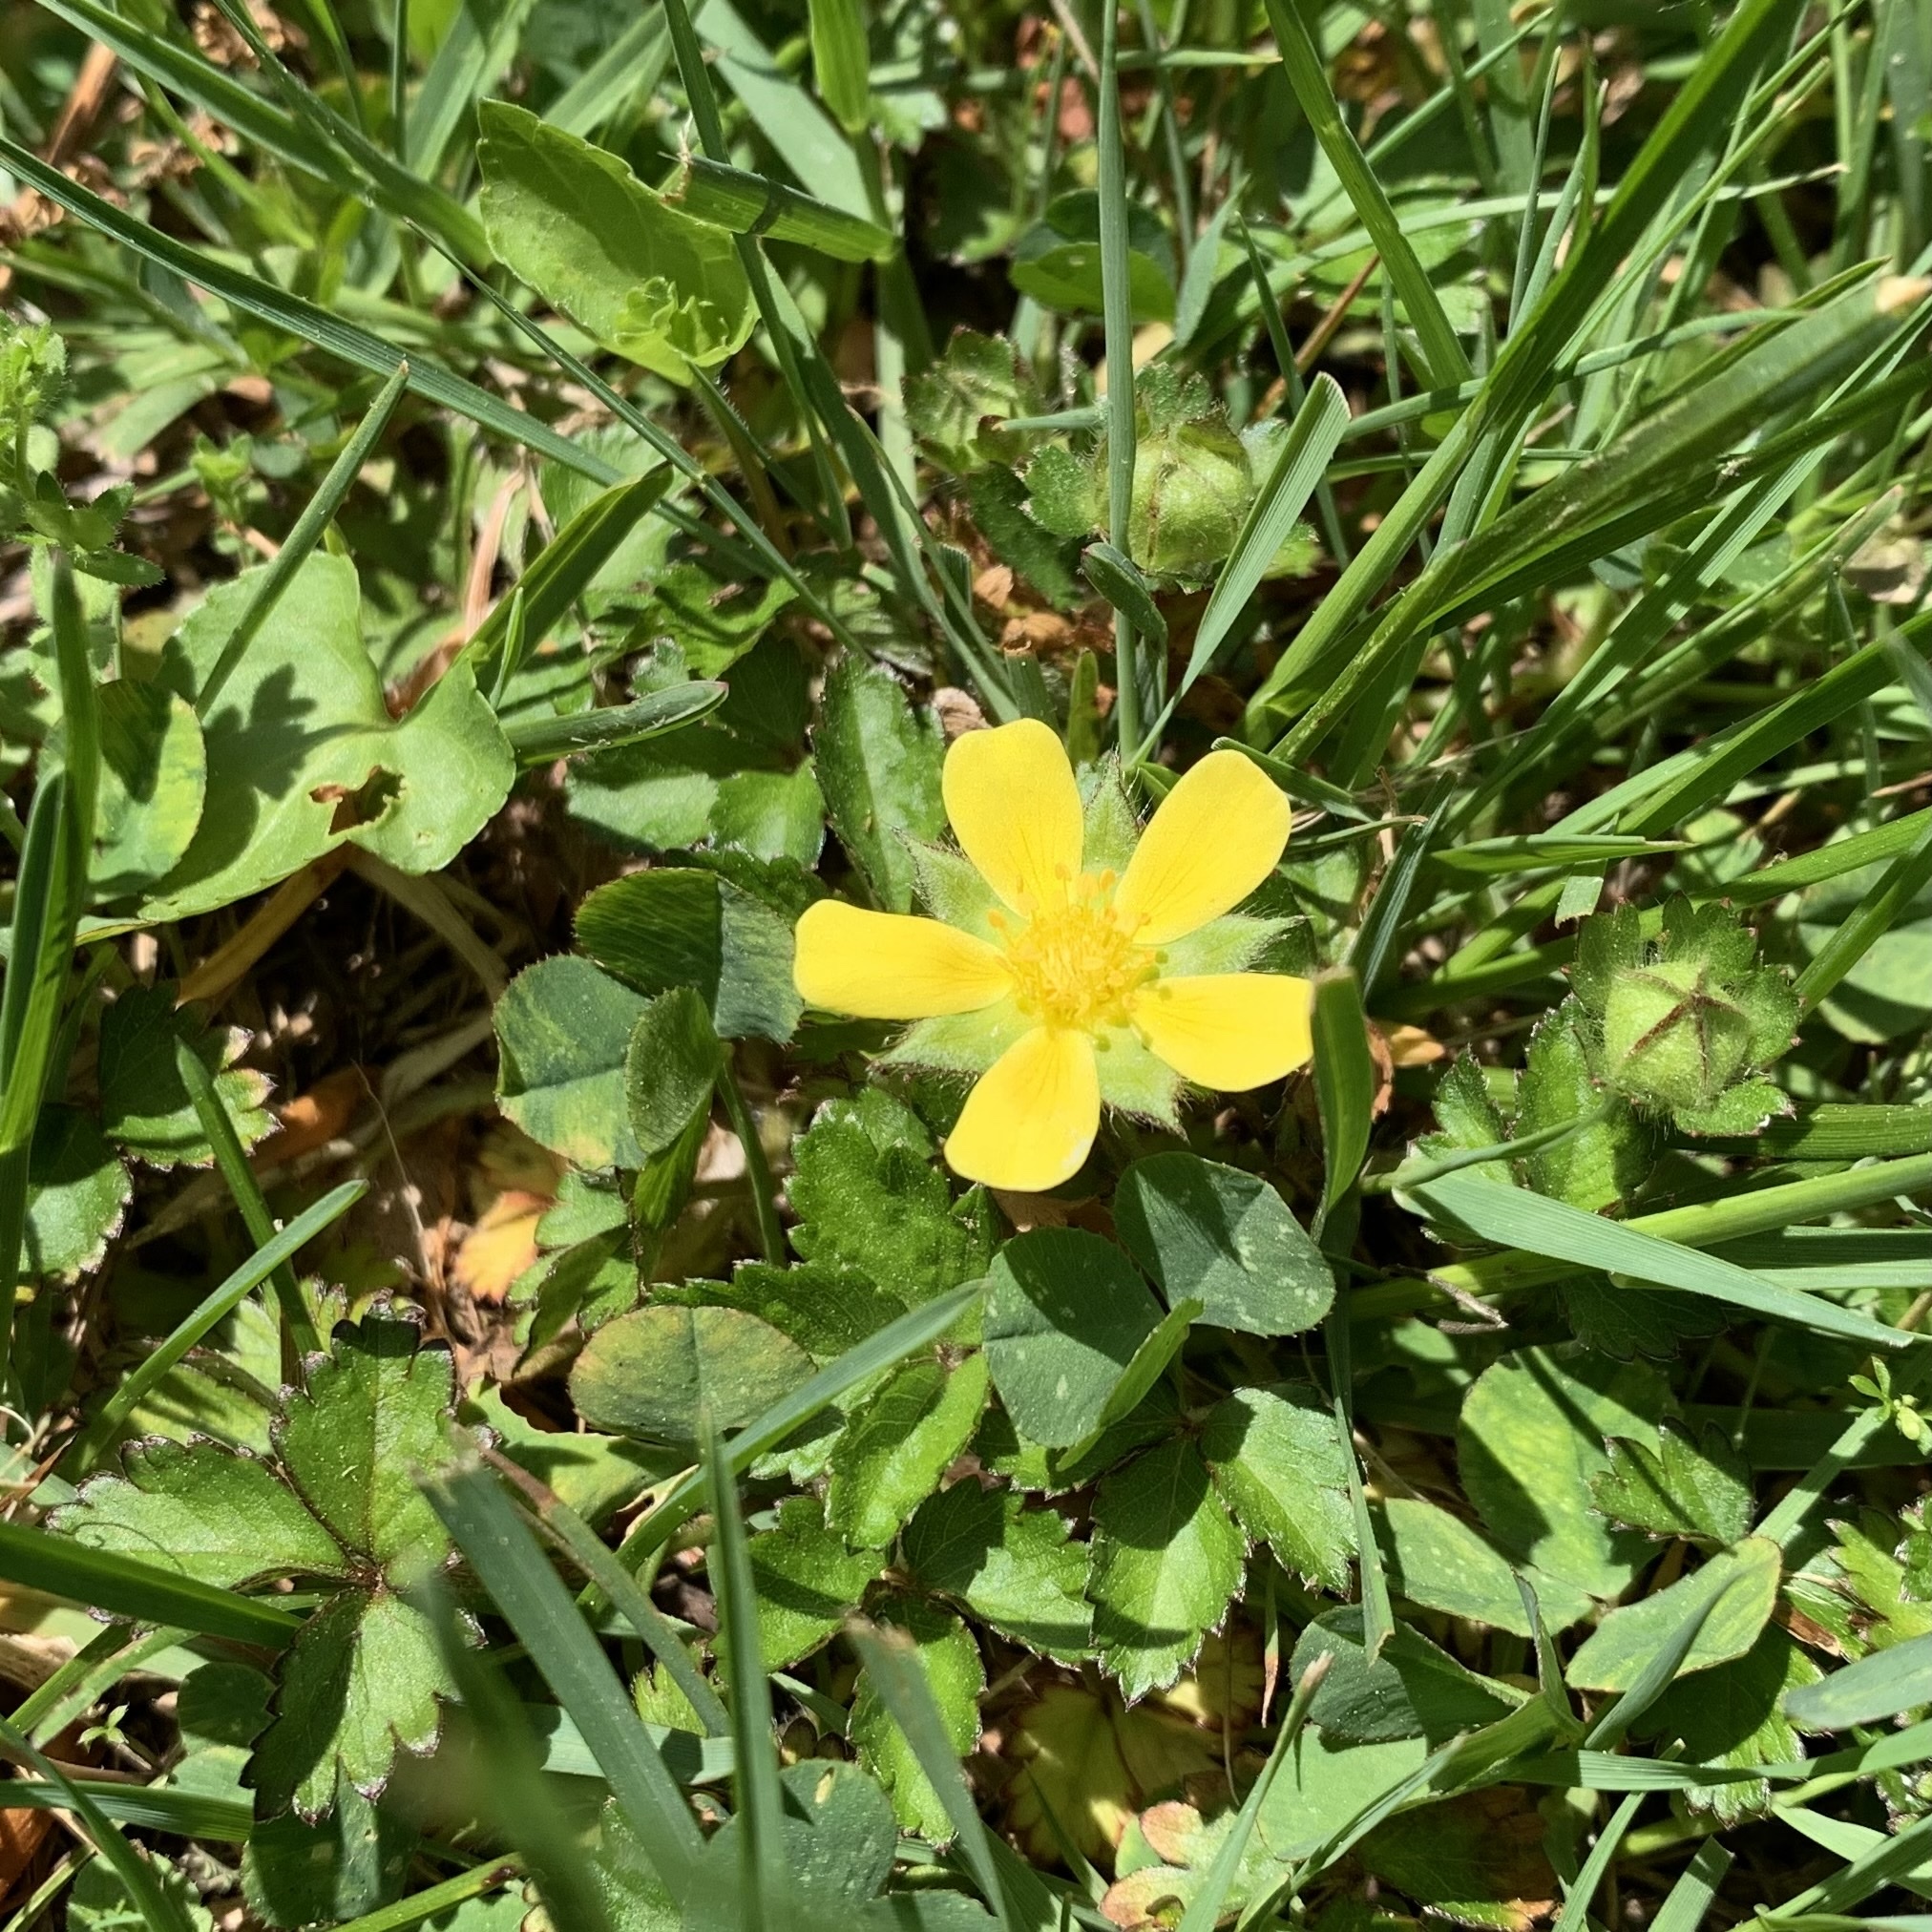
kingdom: Plantae
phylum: Tracheophyta
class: Magnoliopsida
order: Rosales
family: Rosaceae
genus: Potentilla
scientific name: Potentilla indica
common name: Yellow-flowered strawberry
